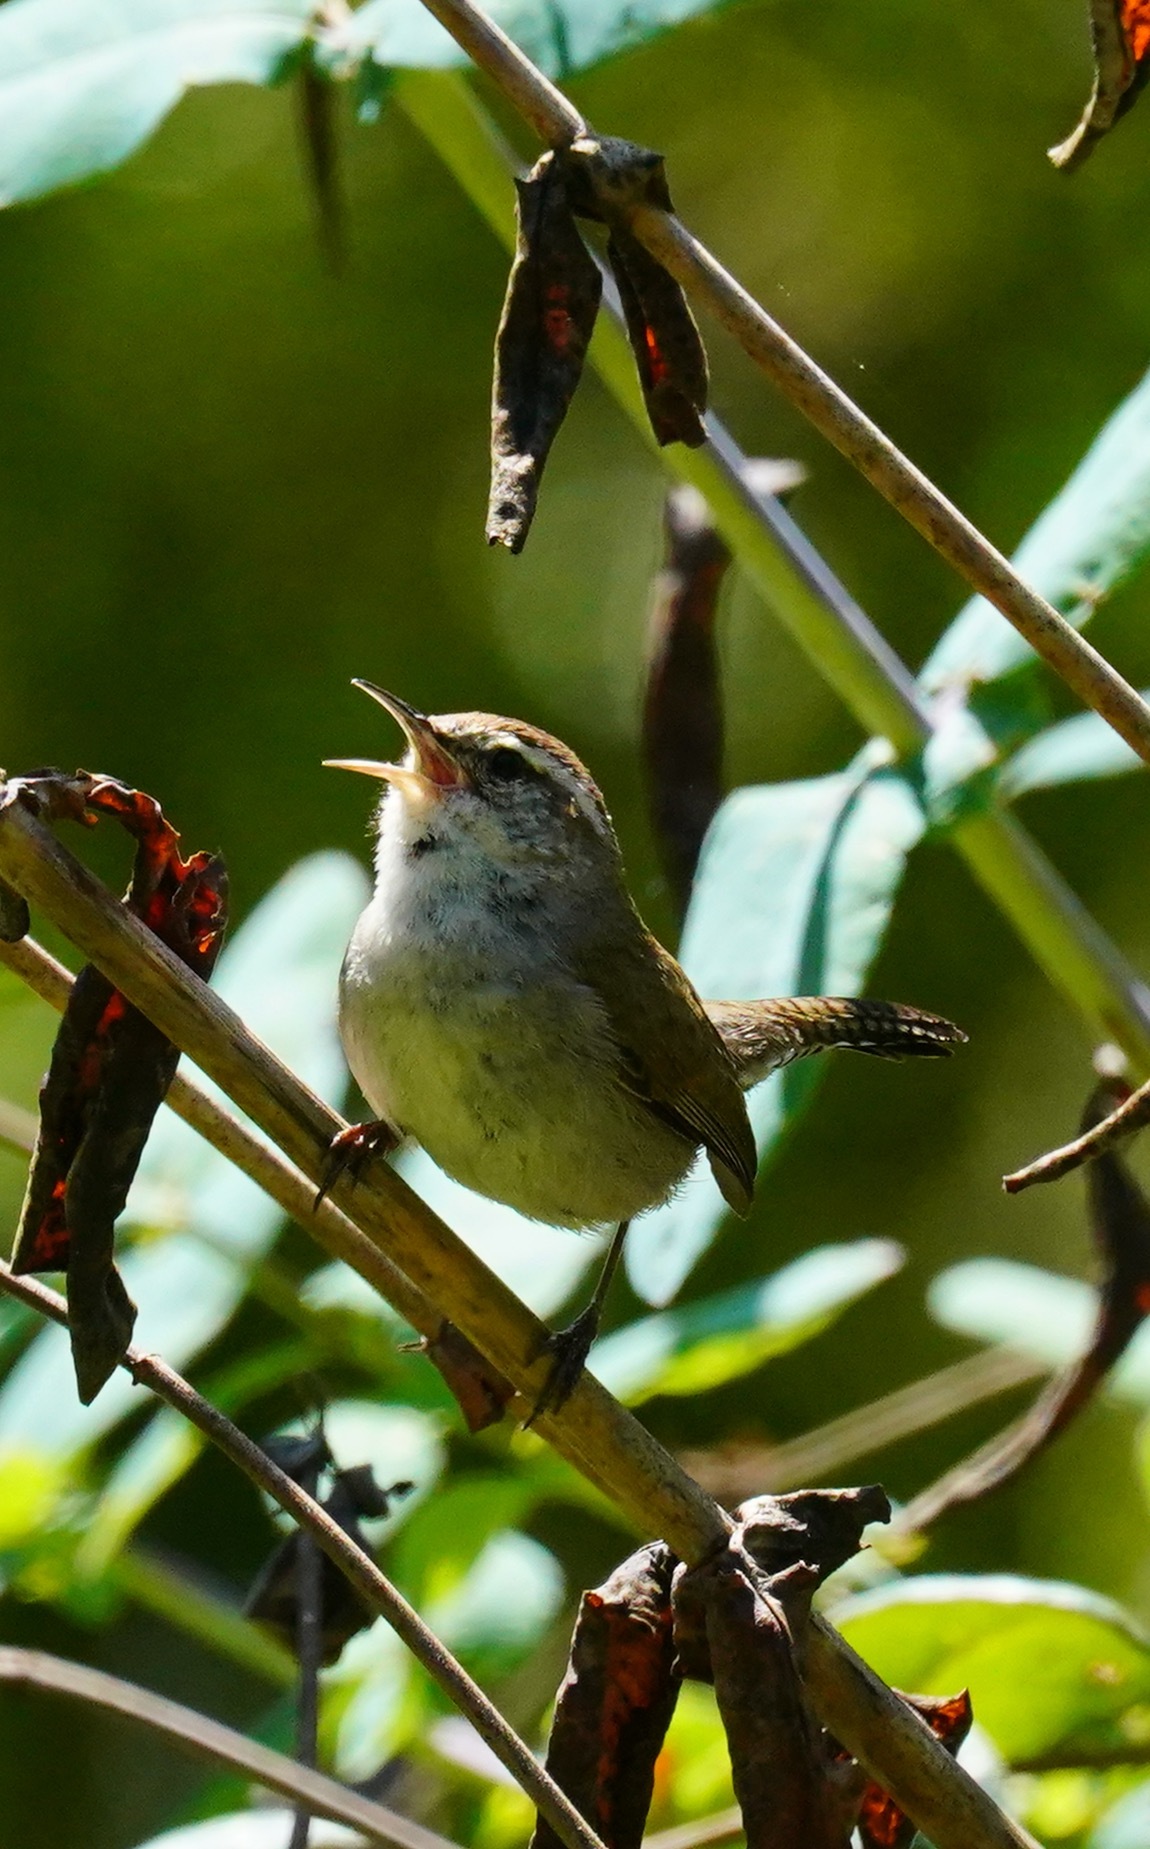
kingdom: Animalia
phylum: Chordata
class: Aves
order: Passeriformes
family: Troglodytidae
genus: Thryomanes
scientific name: Thryomanes bewickii
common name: Bewick's wren
